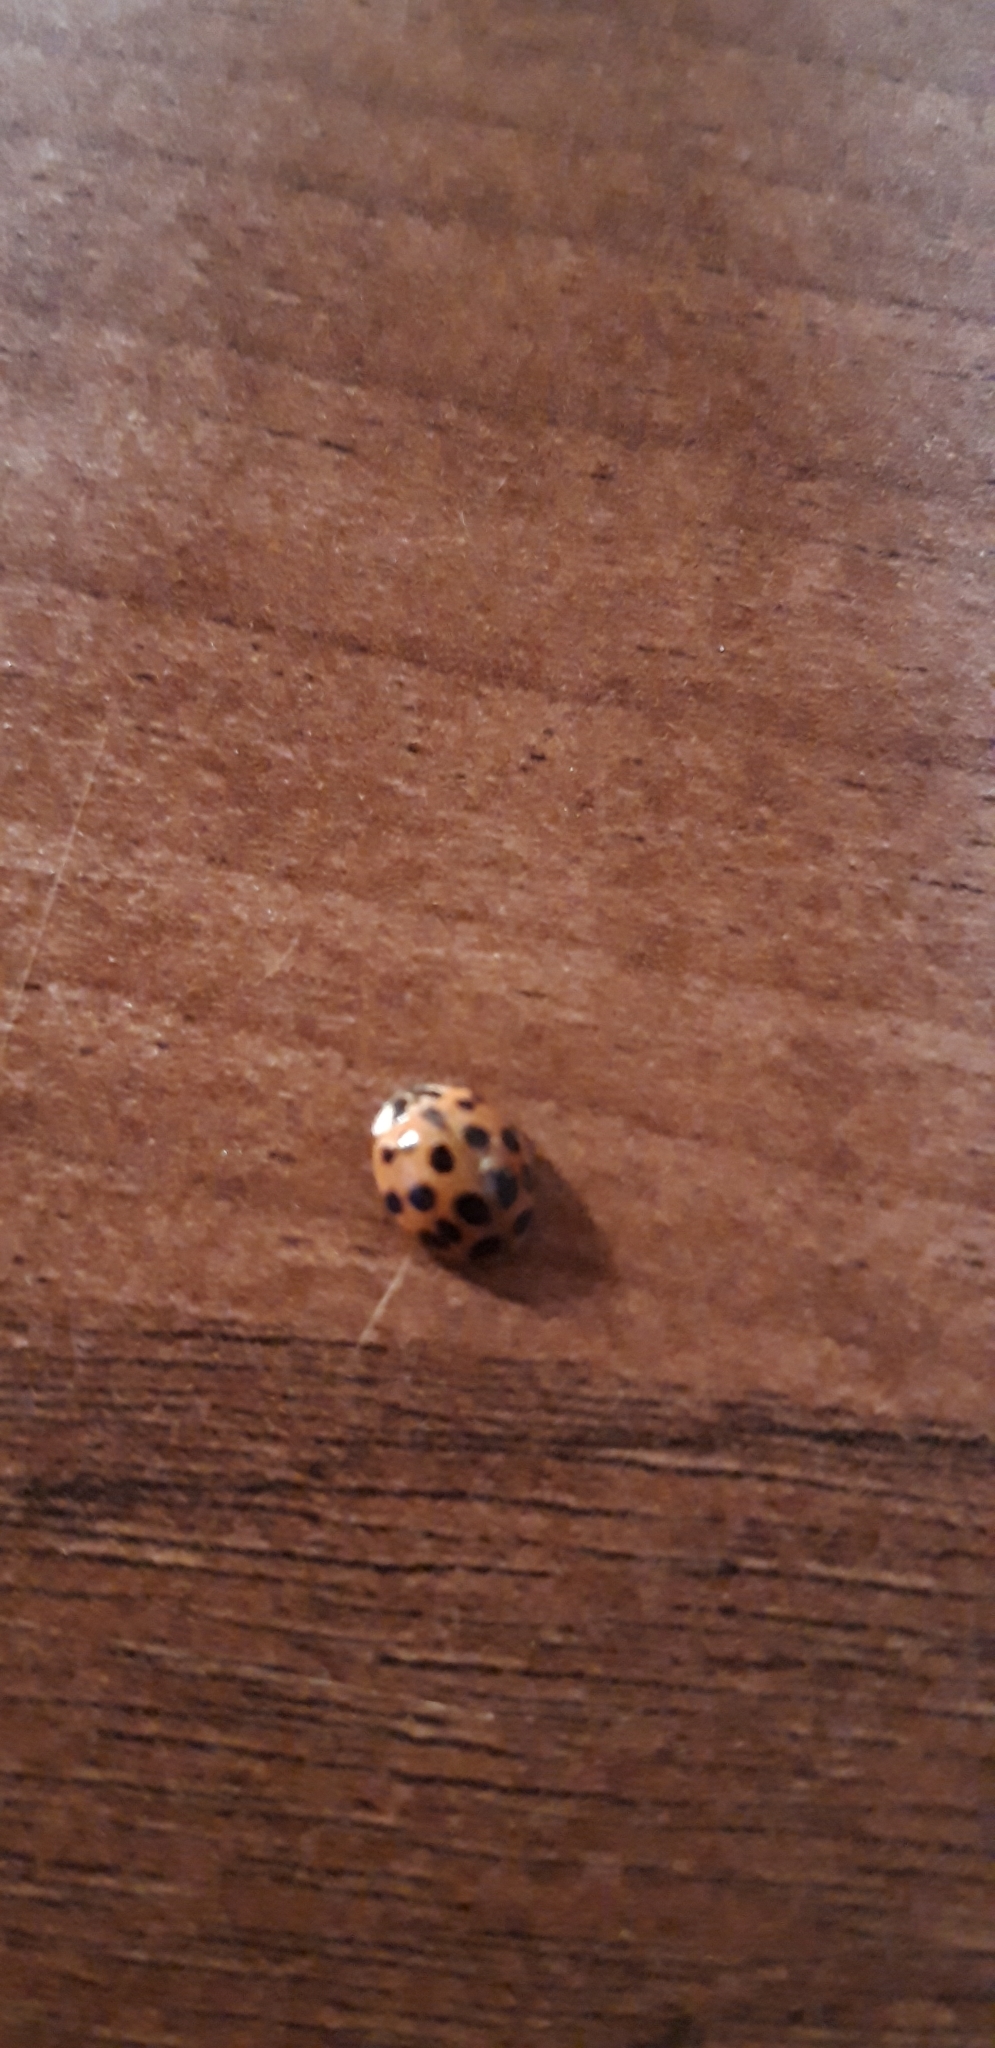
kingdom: Animalia
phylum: Arthropoda
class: Insecta
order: Coleoptera
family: Coccinellidae
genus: Harmonia
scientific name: Harmonia axyridis
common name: Harlequin ladybird
